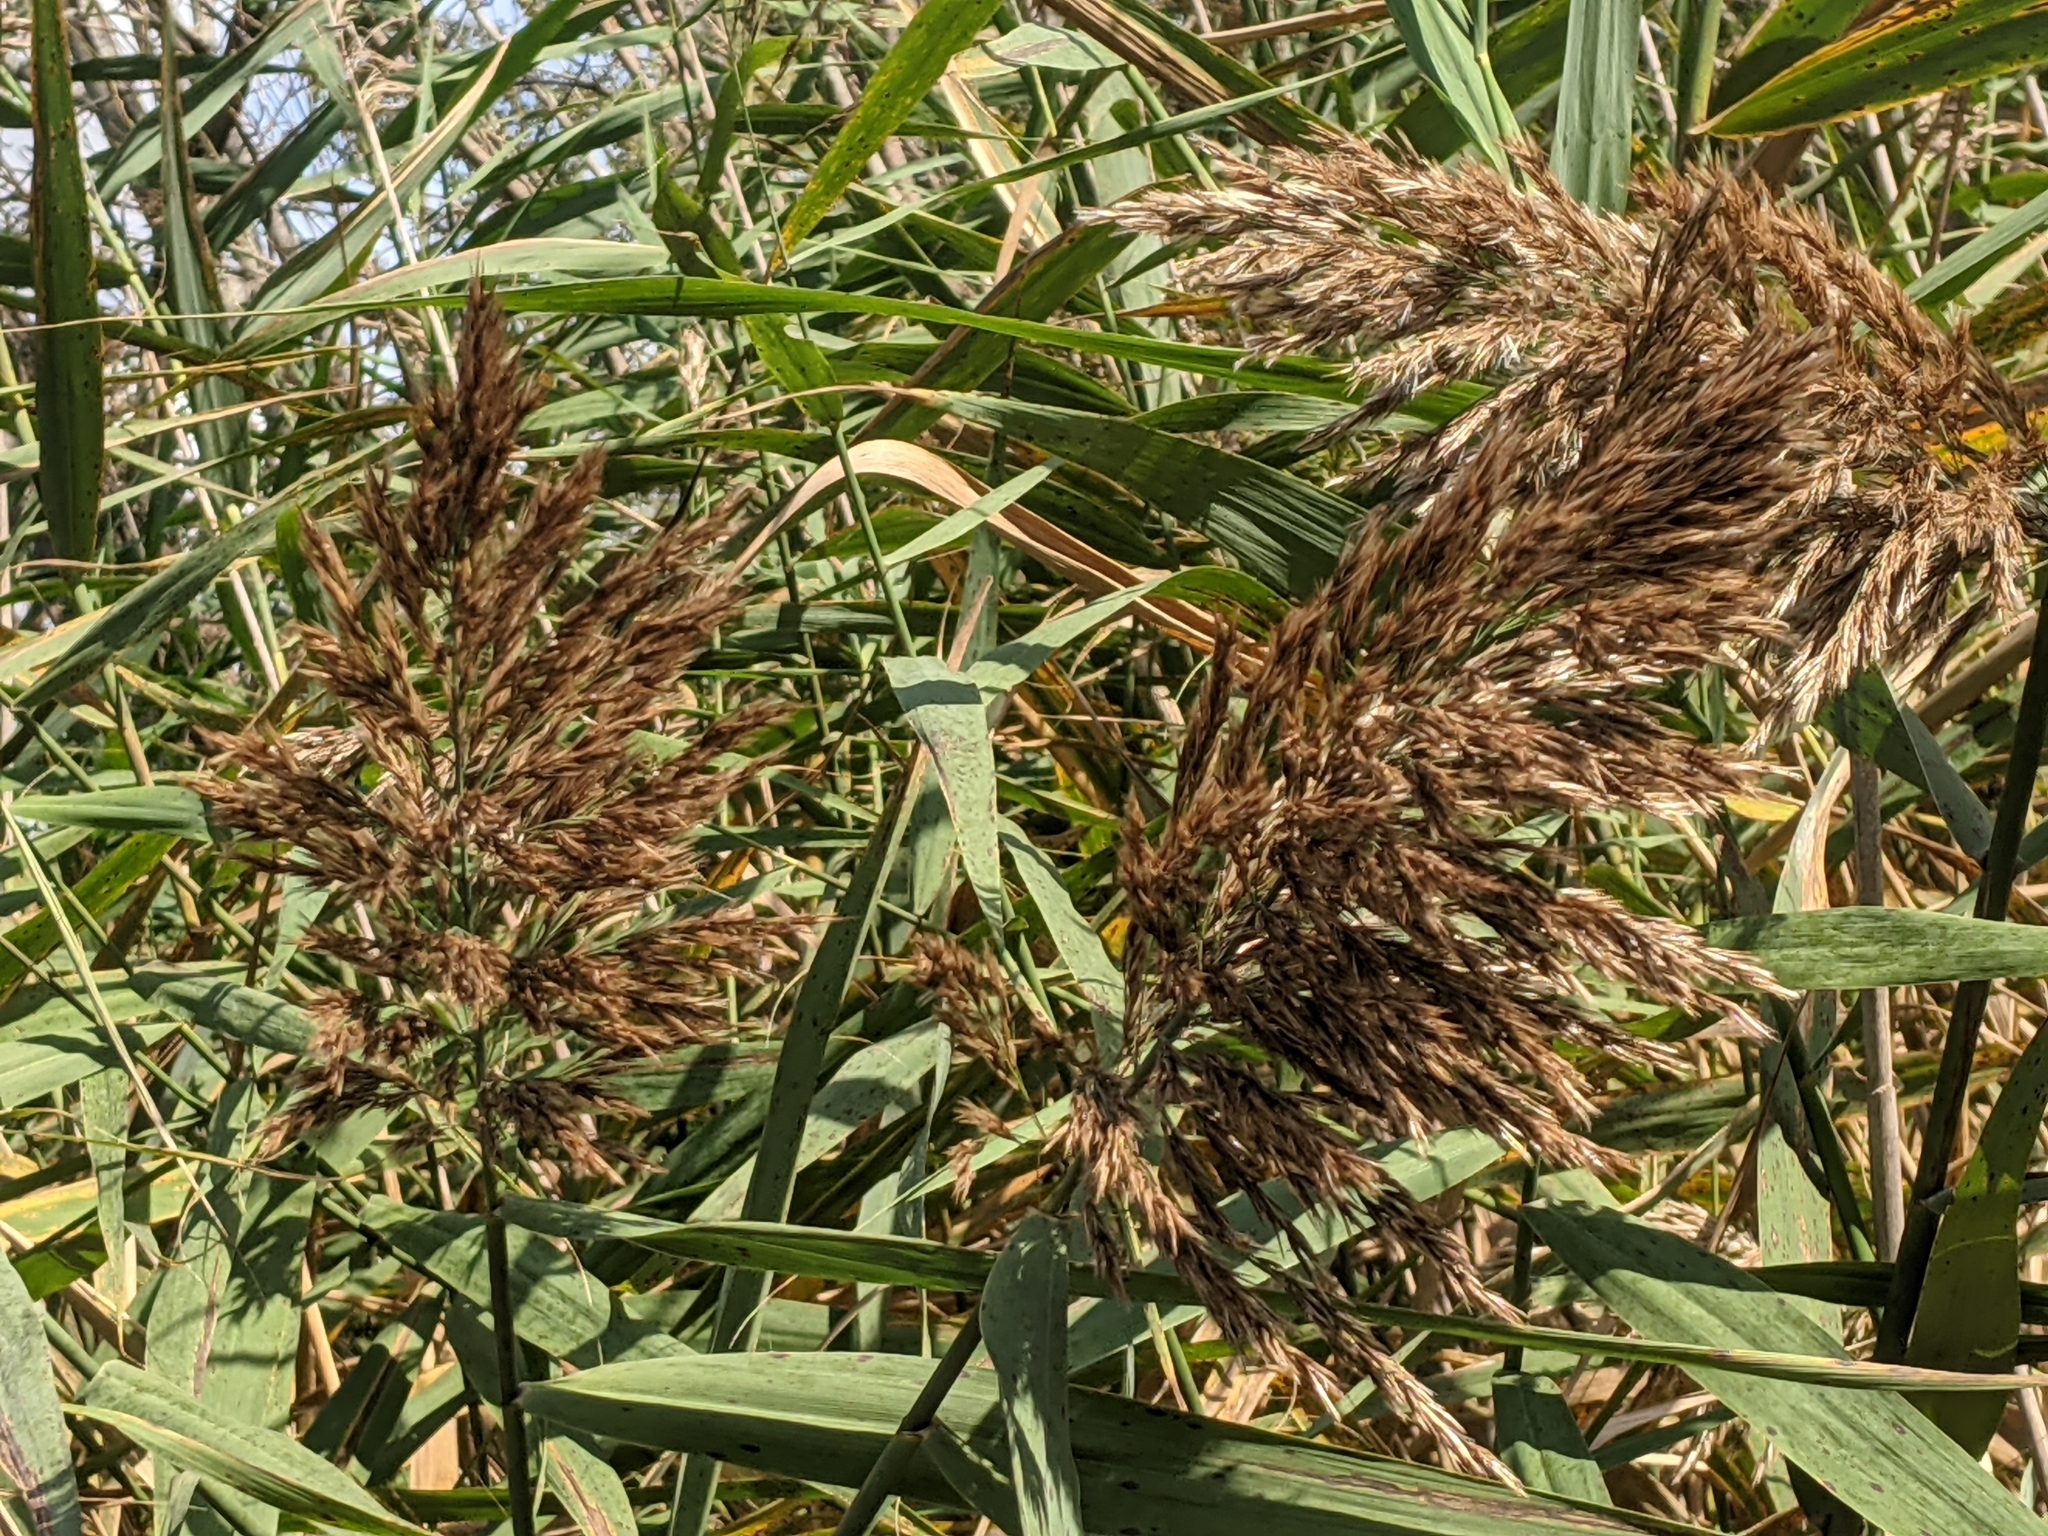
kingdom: Plantae
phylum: Tracheophyta
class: Liliopsida
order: Poales
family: Poaceae
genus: Phragmites
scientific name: Phragmites australis
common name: Common reed
